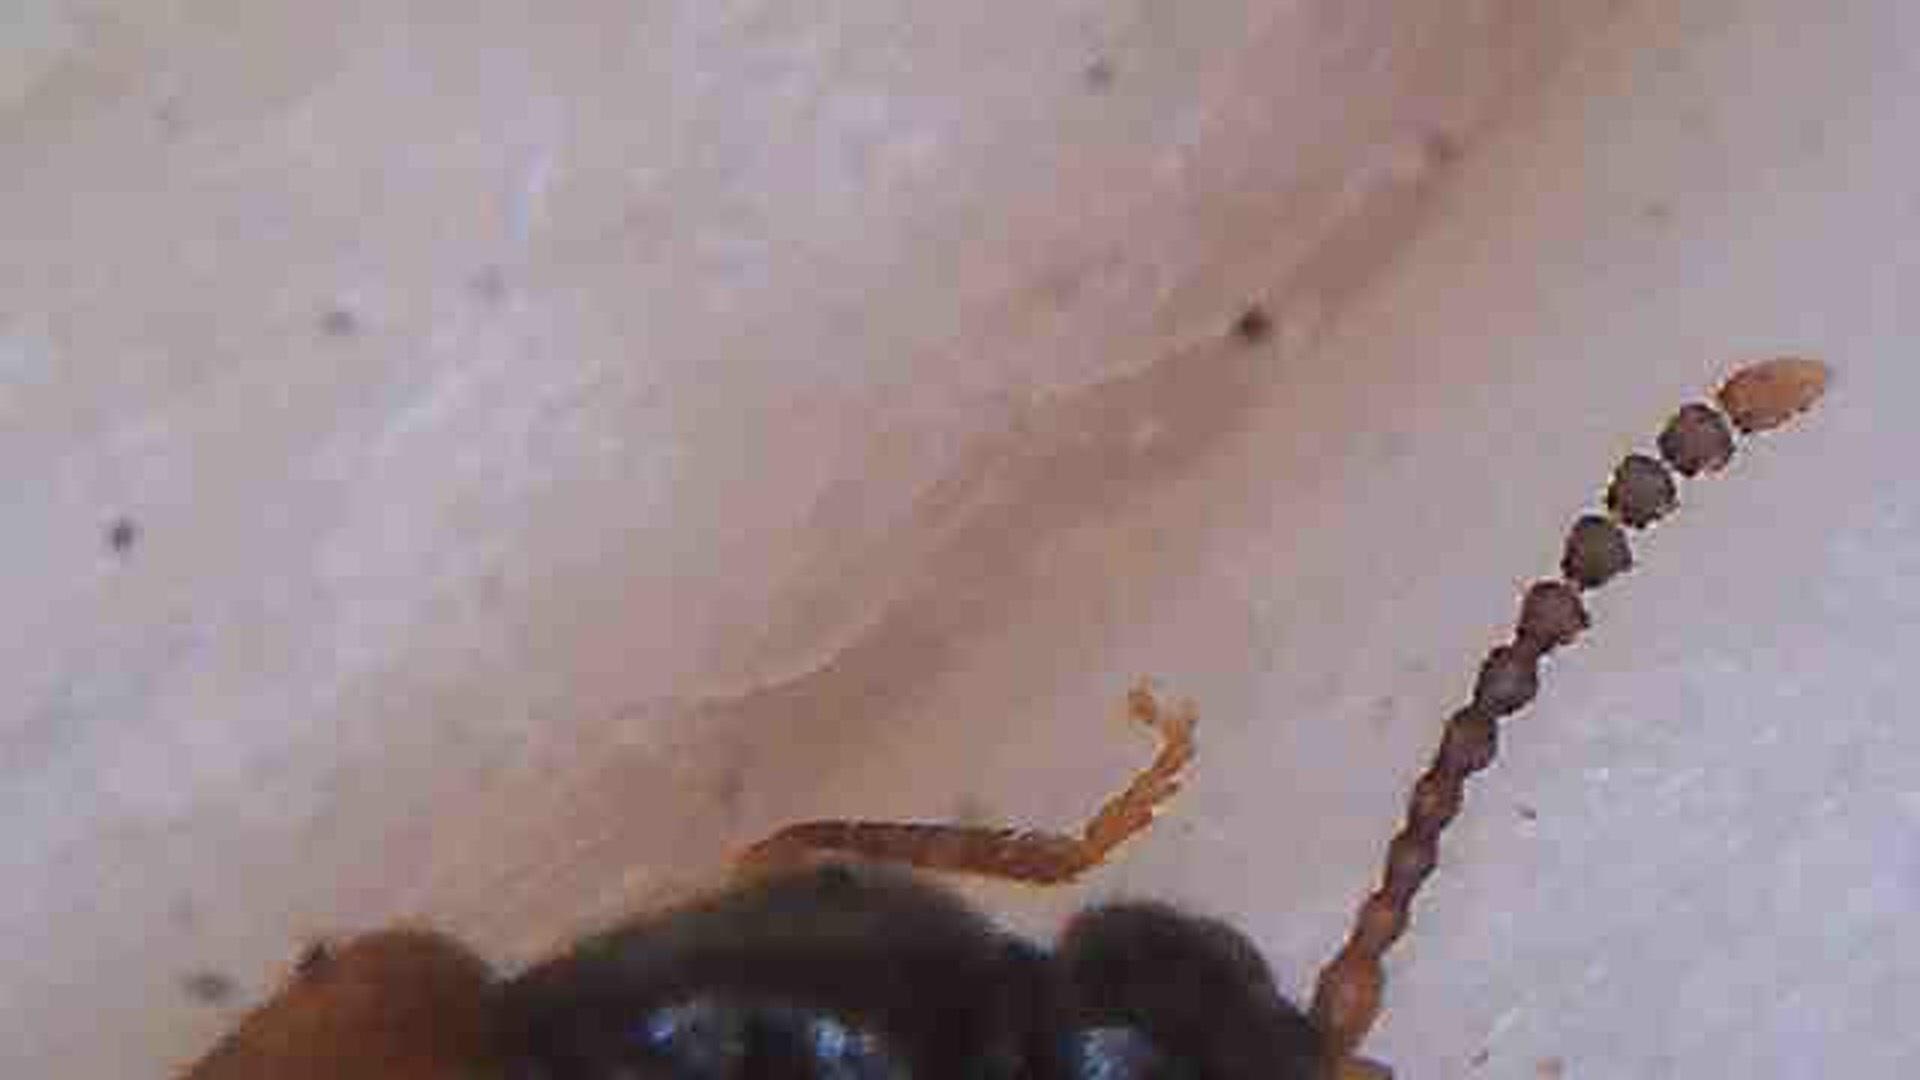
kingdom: Animalia
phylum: Arthropoda
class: Insecta
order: Coleoptera
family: Anthicidae
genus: Trichananca
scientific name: Trichananca fulgida
